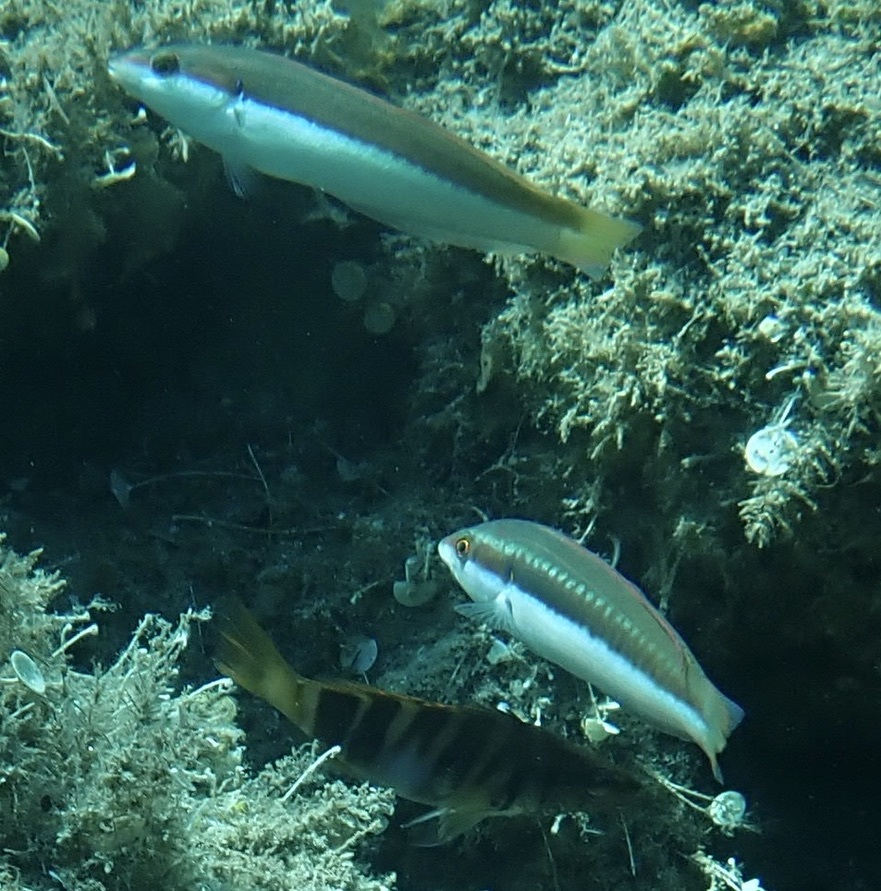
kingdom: Animalia
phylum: Chordata
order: Perciformes
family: Labridae
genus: Coris
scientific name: Coris julis
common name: Rainbow wrasse
